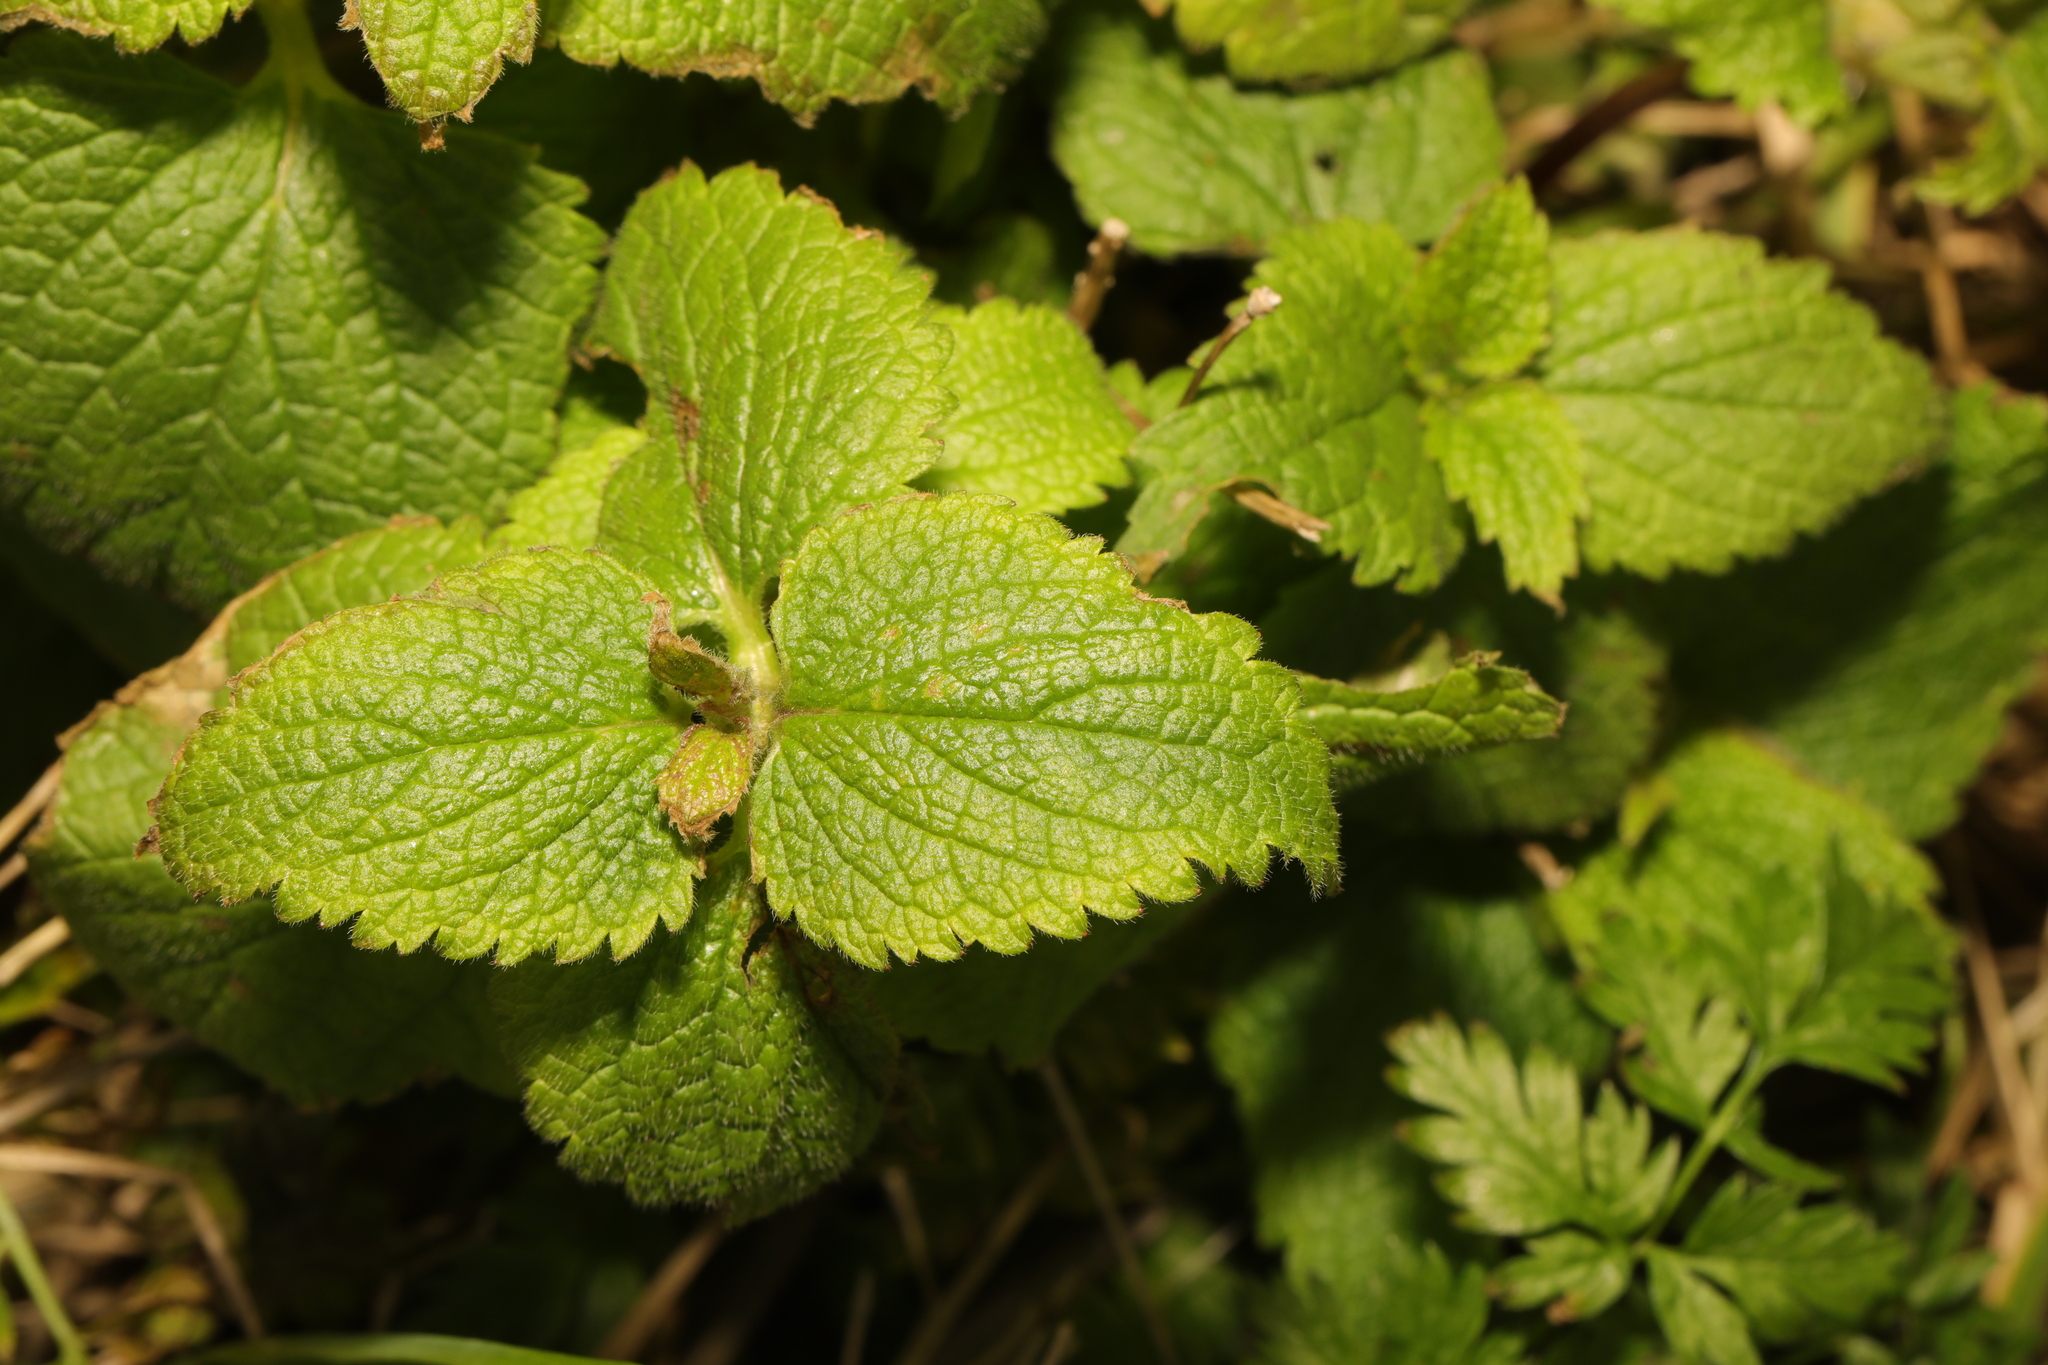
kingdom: Plantae
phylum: Tracheophyta
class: Magnoliopsida
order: Lamiales
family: Lamiaceae
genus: Lamium
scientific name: Lamium album
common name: White dead-nettle
